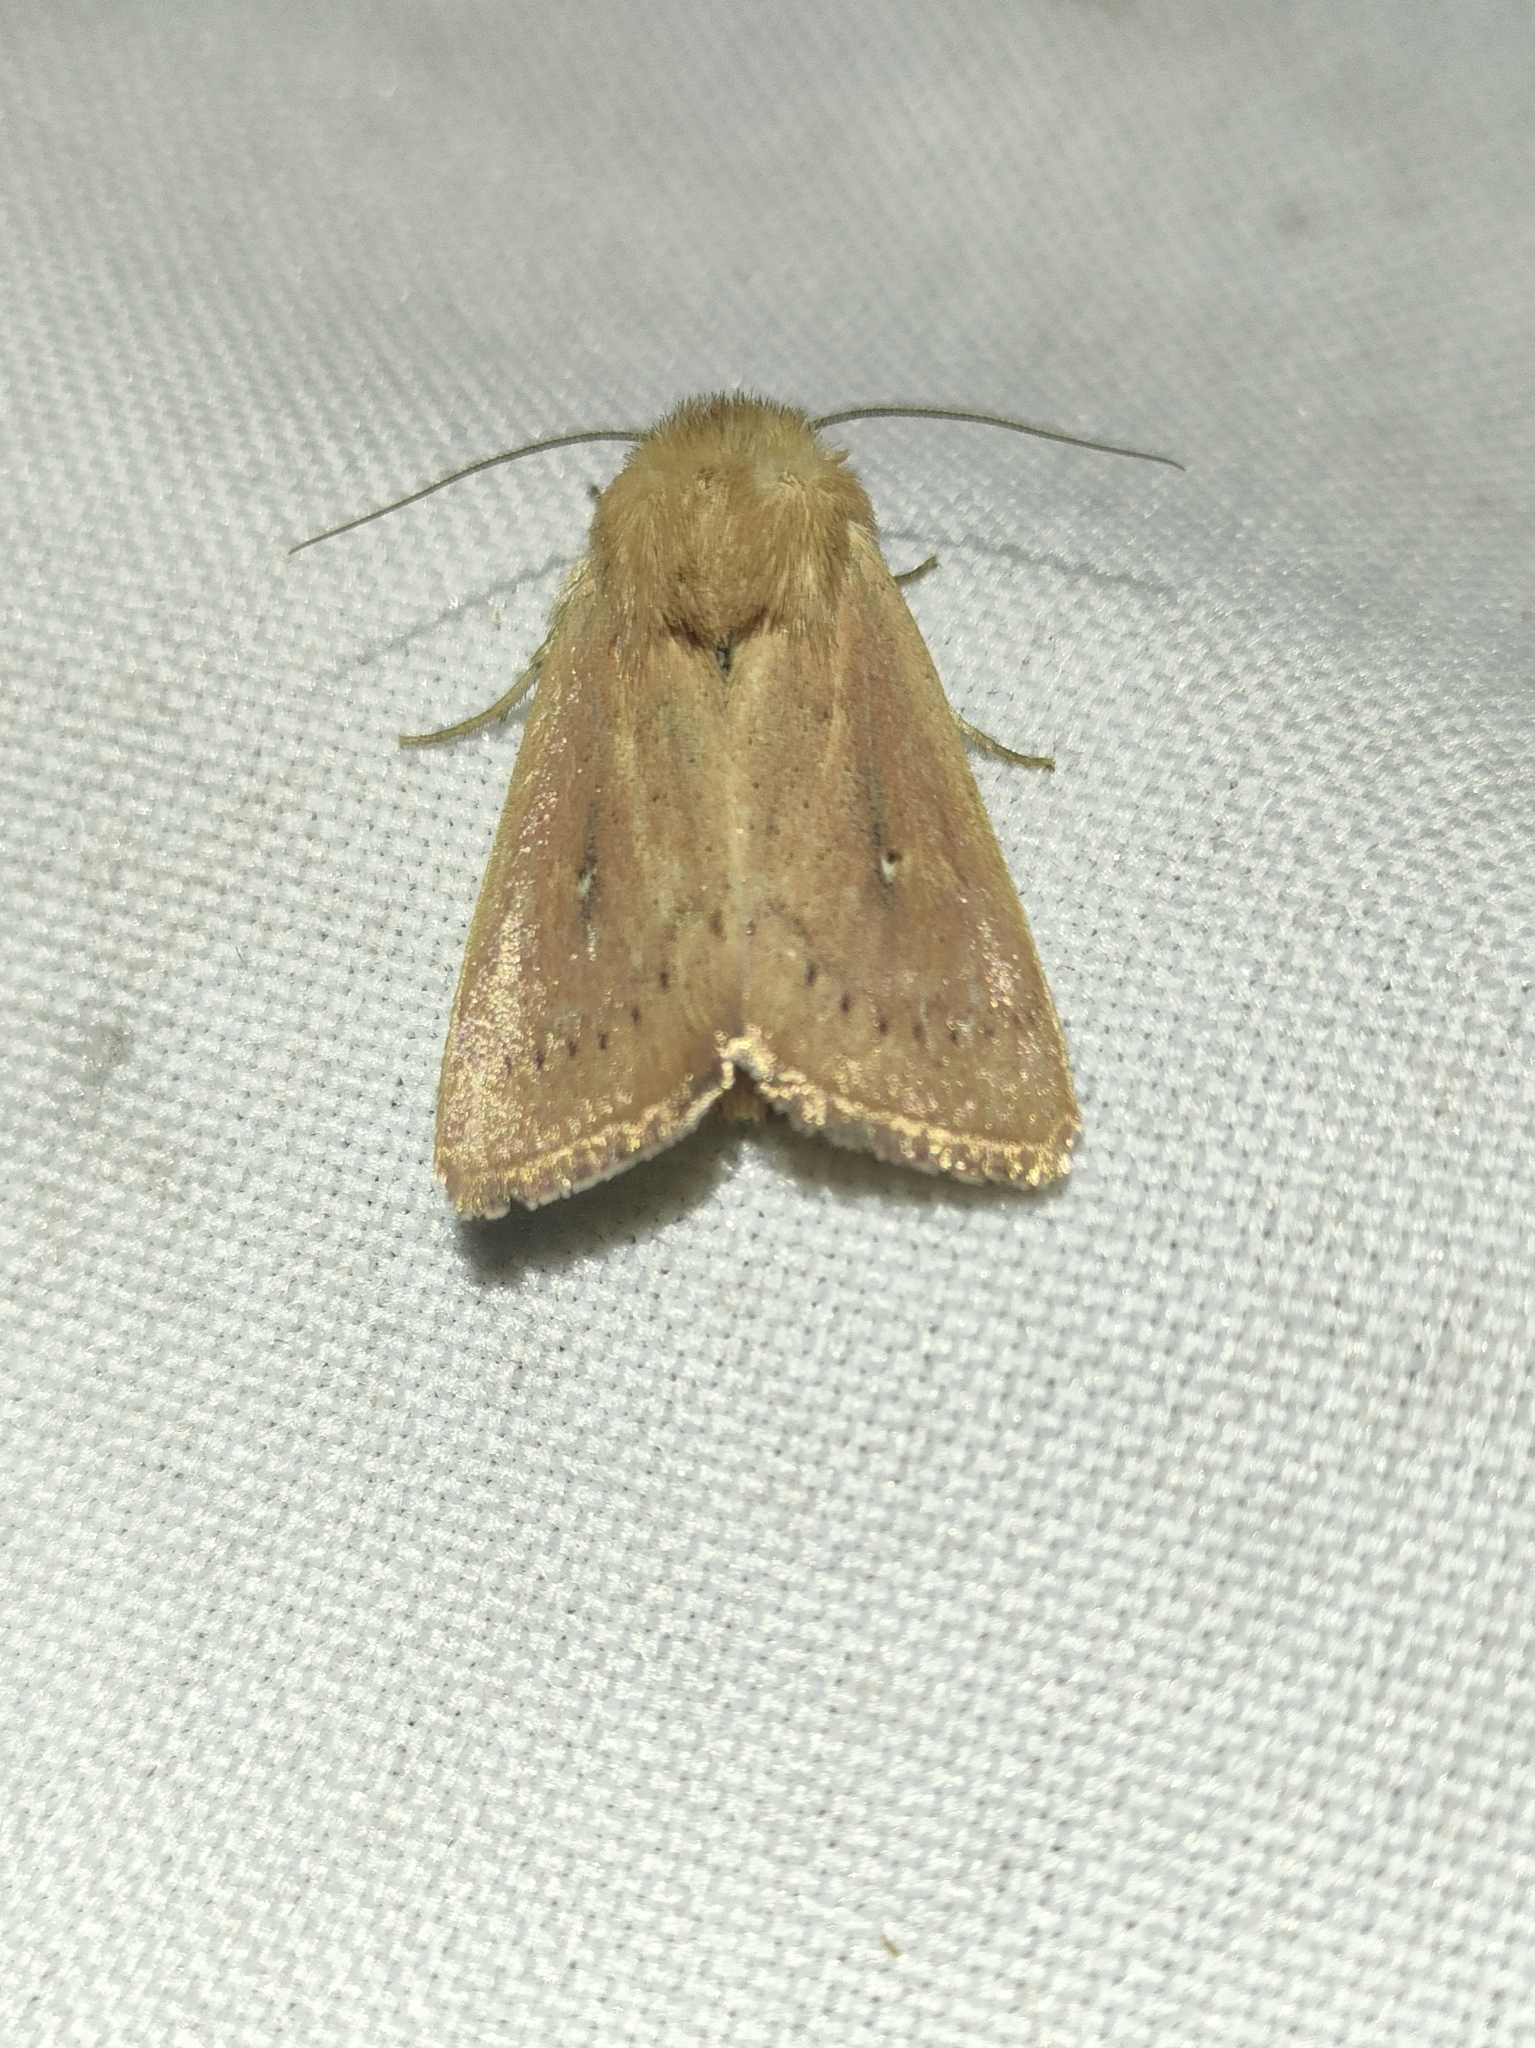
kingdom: Animalia
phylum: Arthropoda
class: Insecta
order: Lepidoptera
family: Noctuidae
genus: Mythimna
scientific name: Mythimna sicula
